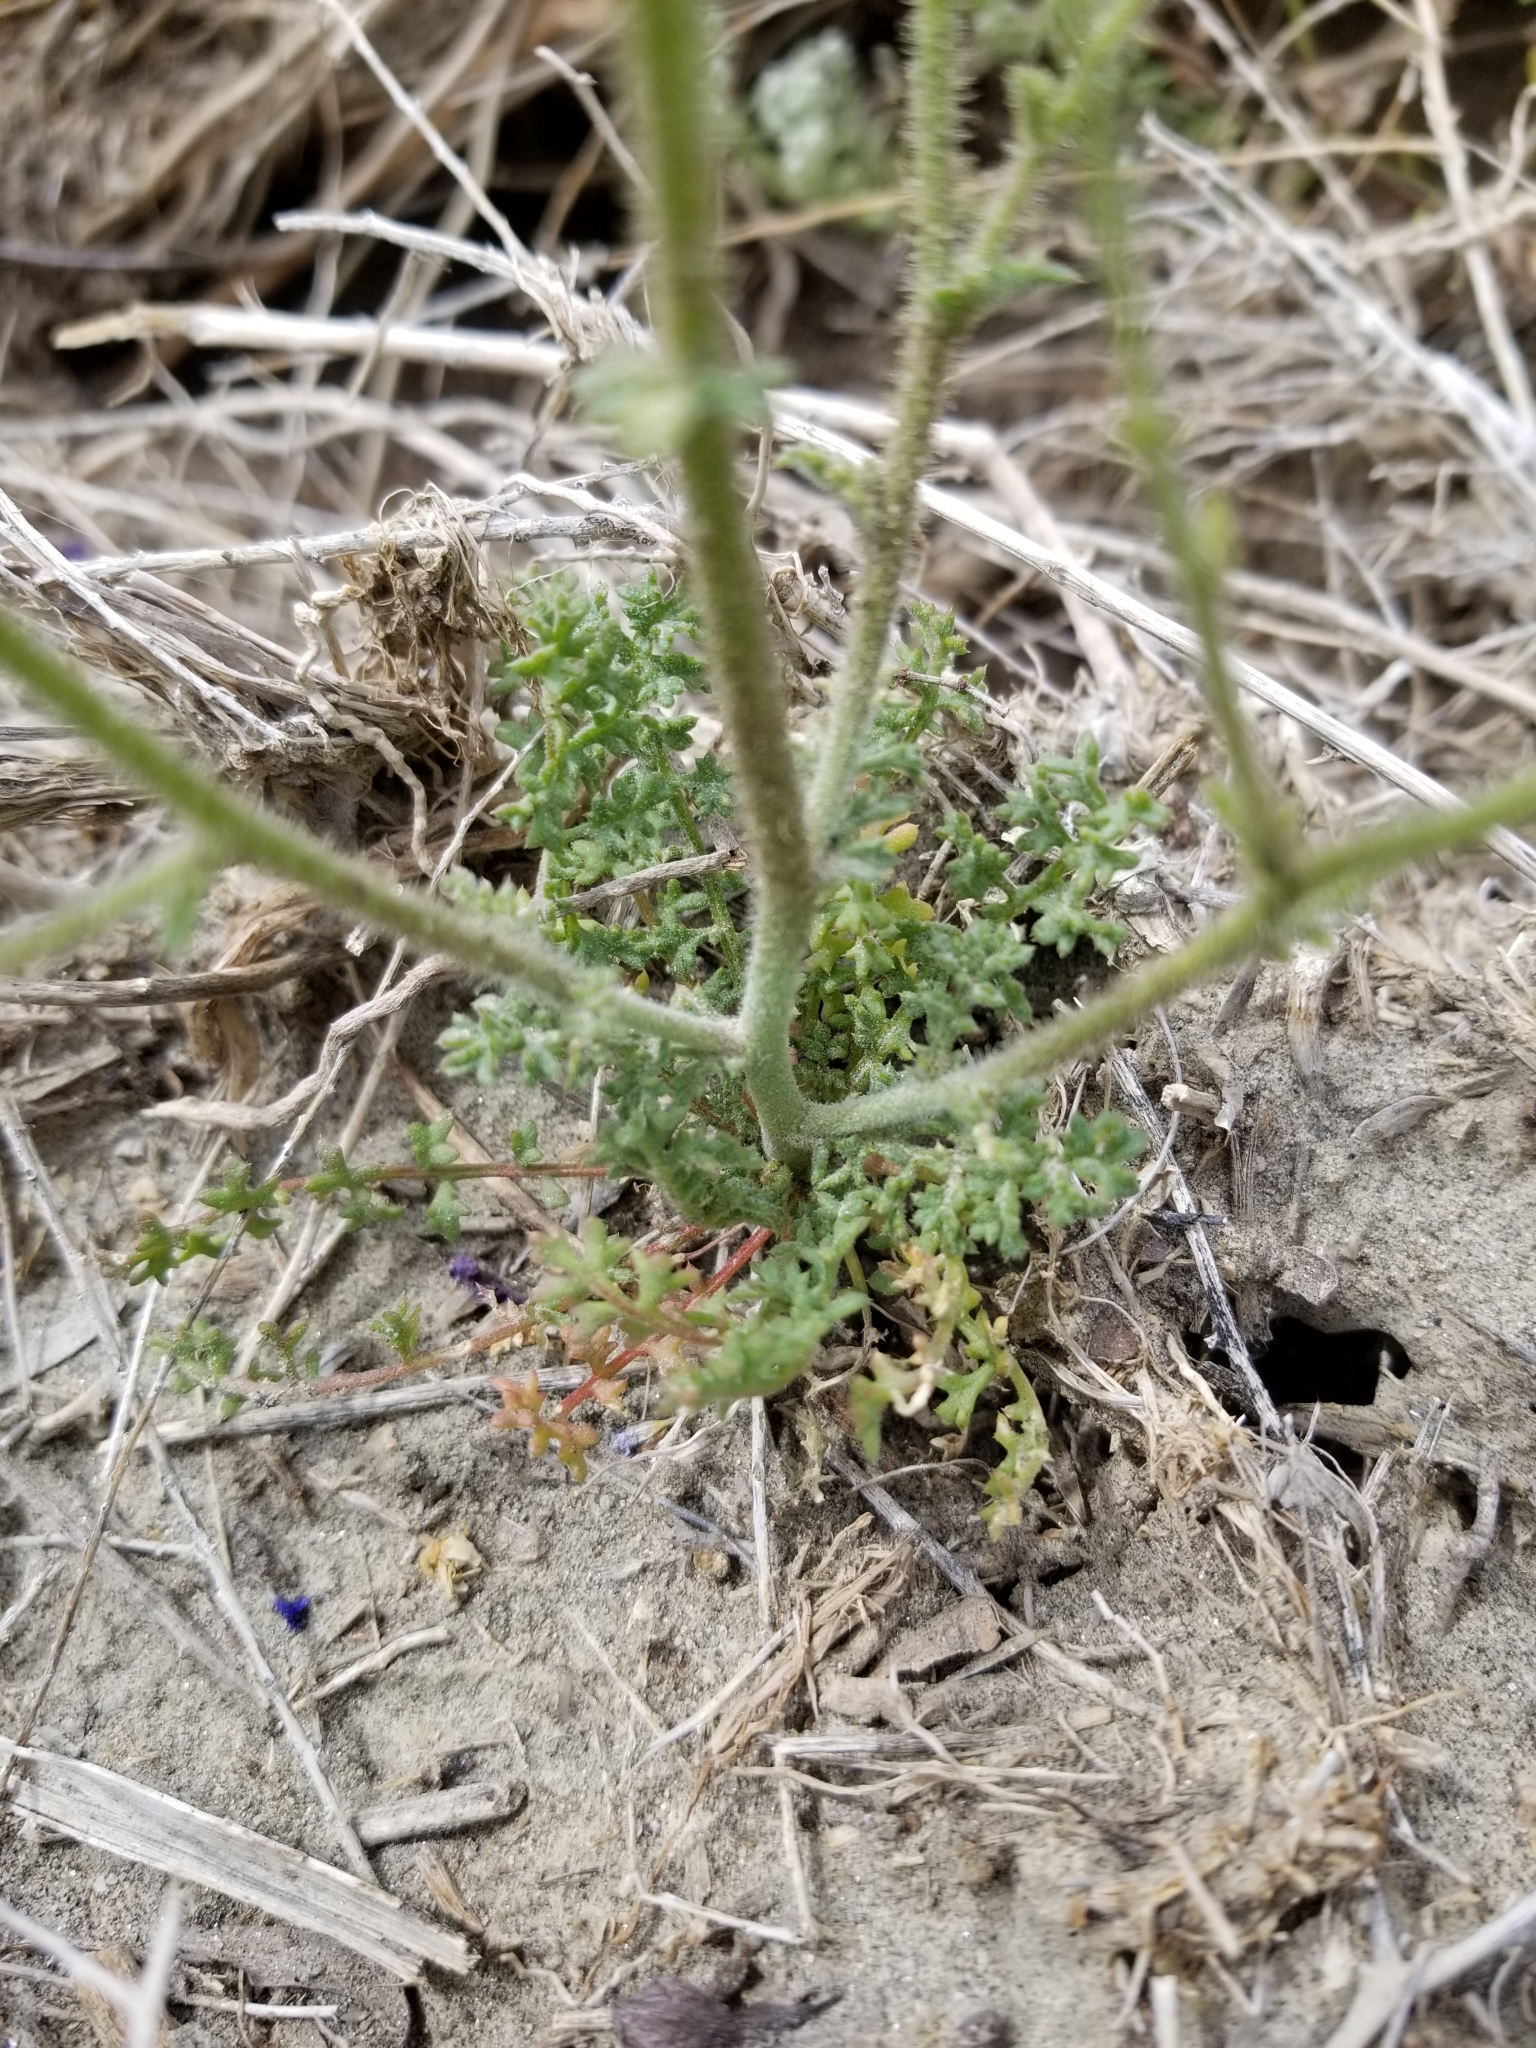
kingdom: Plantae
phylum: Tracheophyta
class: Magnoliopsida
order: Ericales
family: Polemoniaceae
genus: Gilia
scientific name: Gilia stellata
